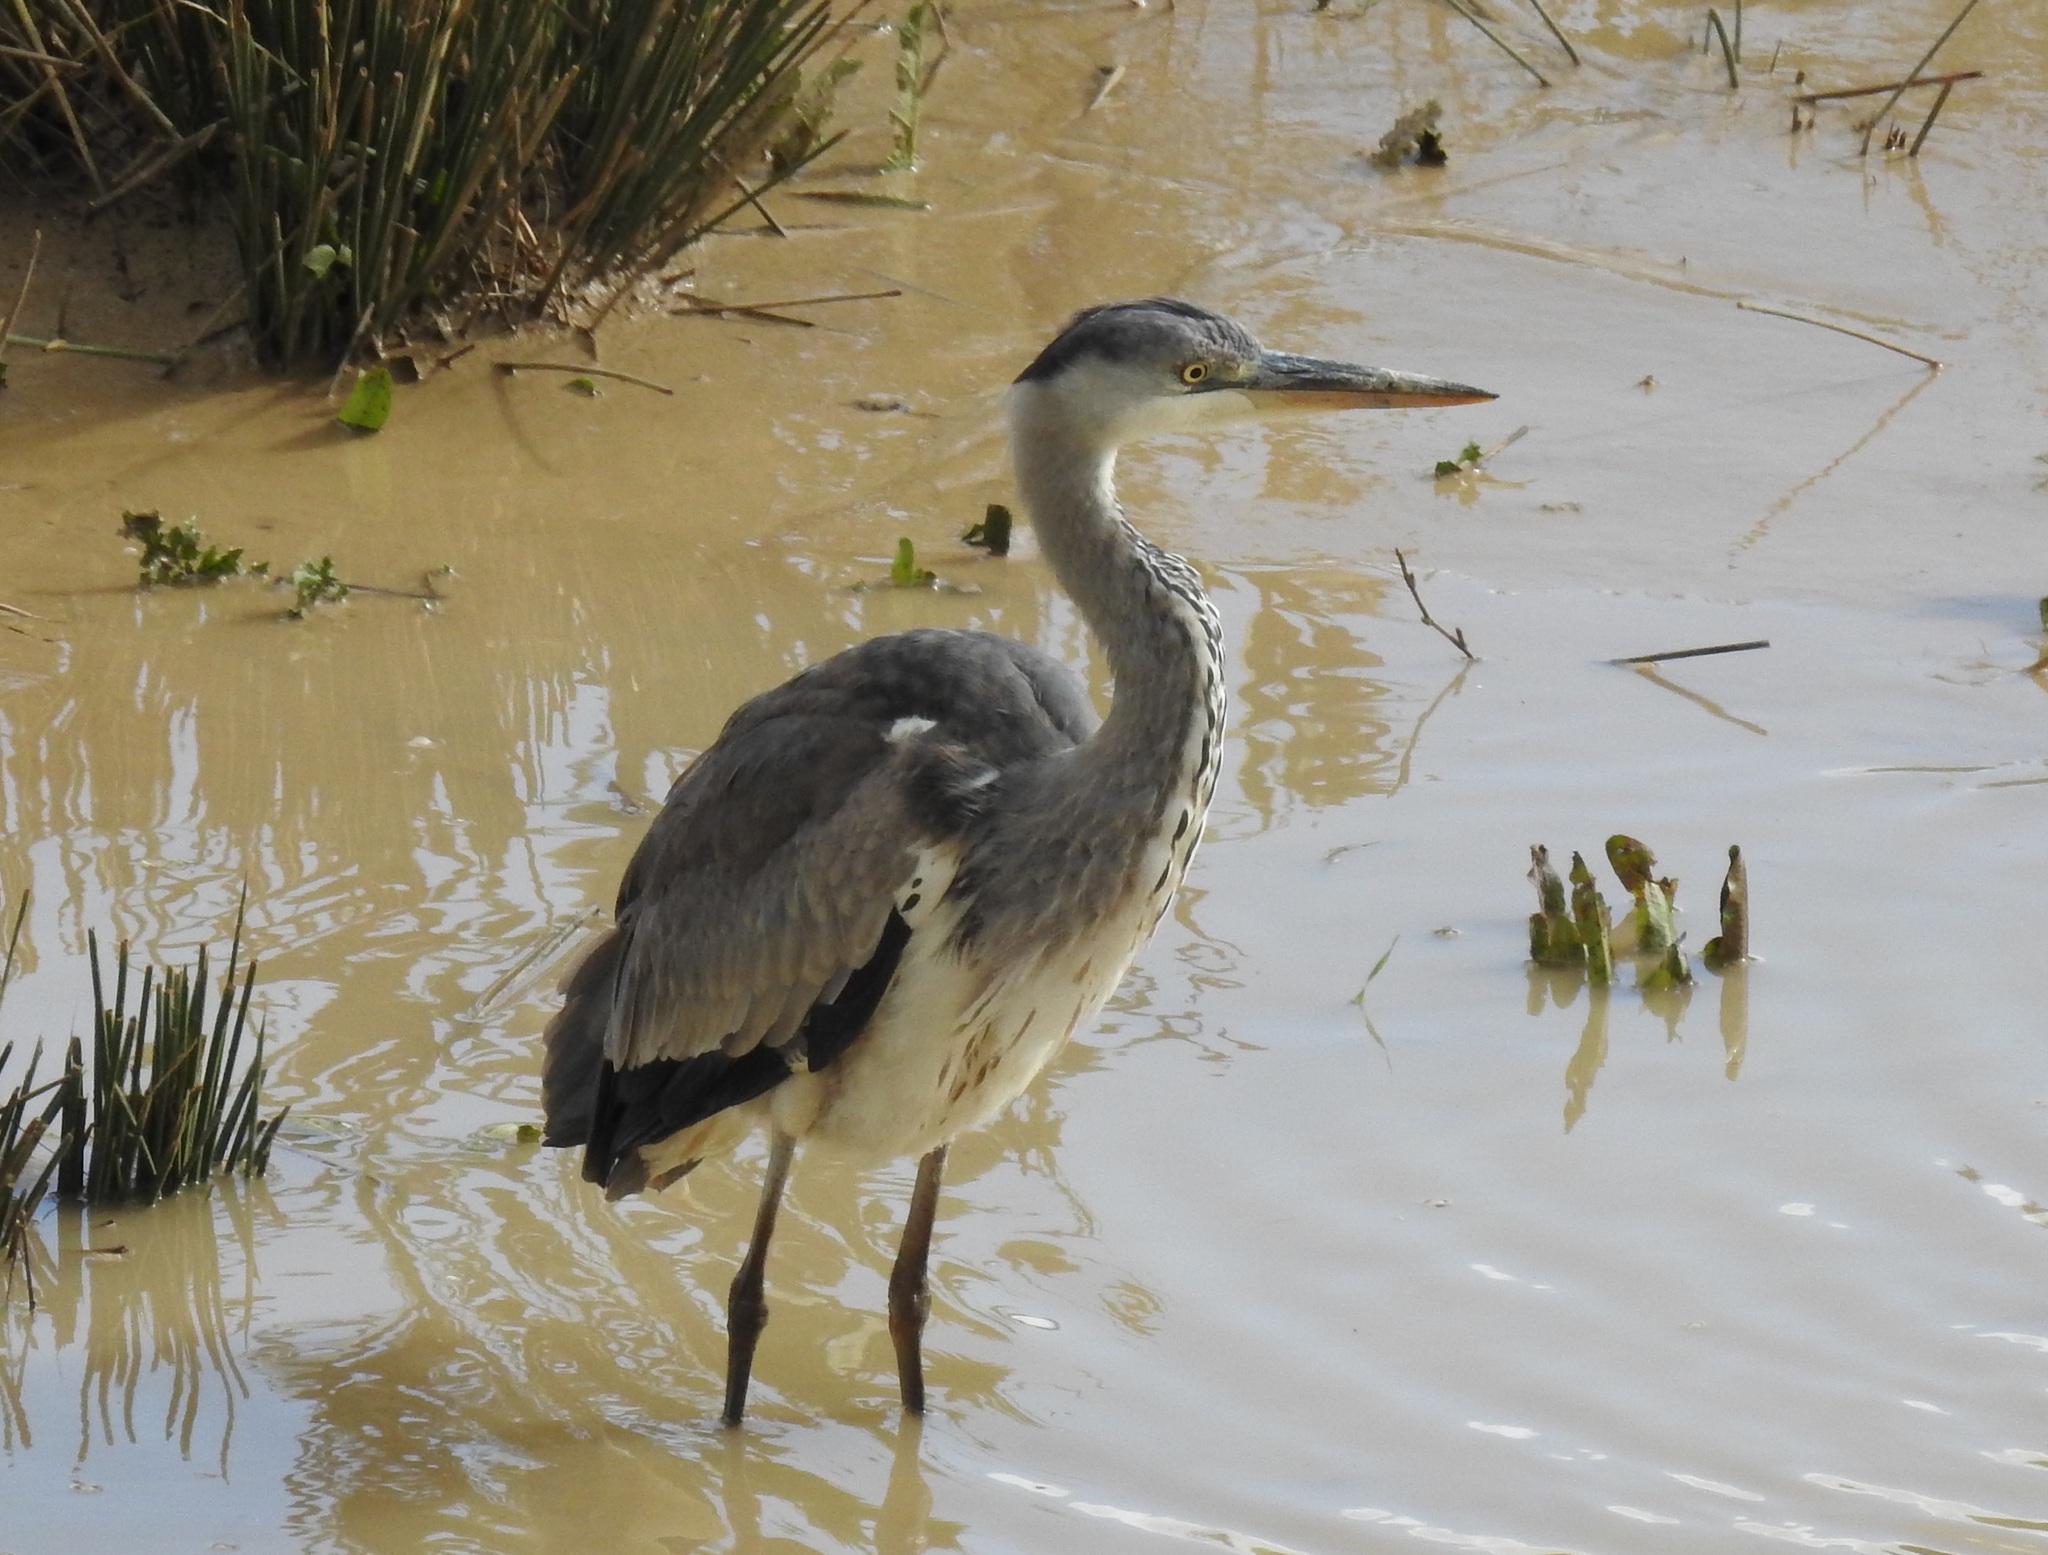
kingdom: Animalia
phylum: Chordata
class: Aves
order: Pelecaniformes
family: Ardeidae
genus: Ardea
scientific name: Ardea cinerea
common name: Grey heron
